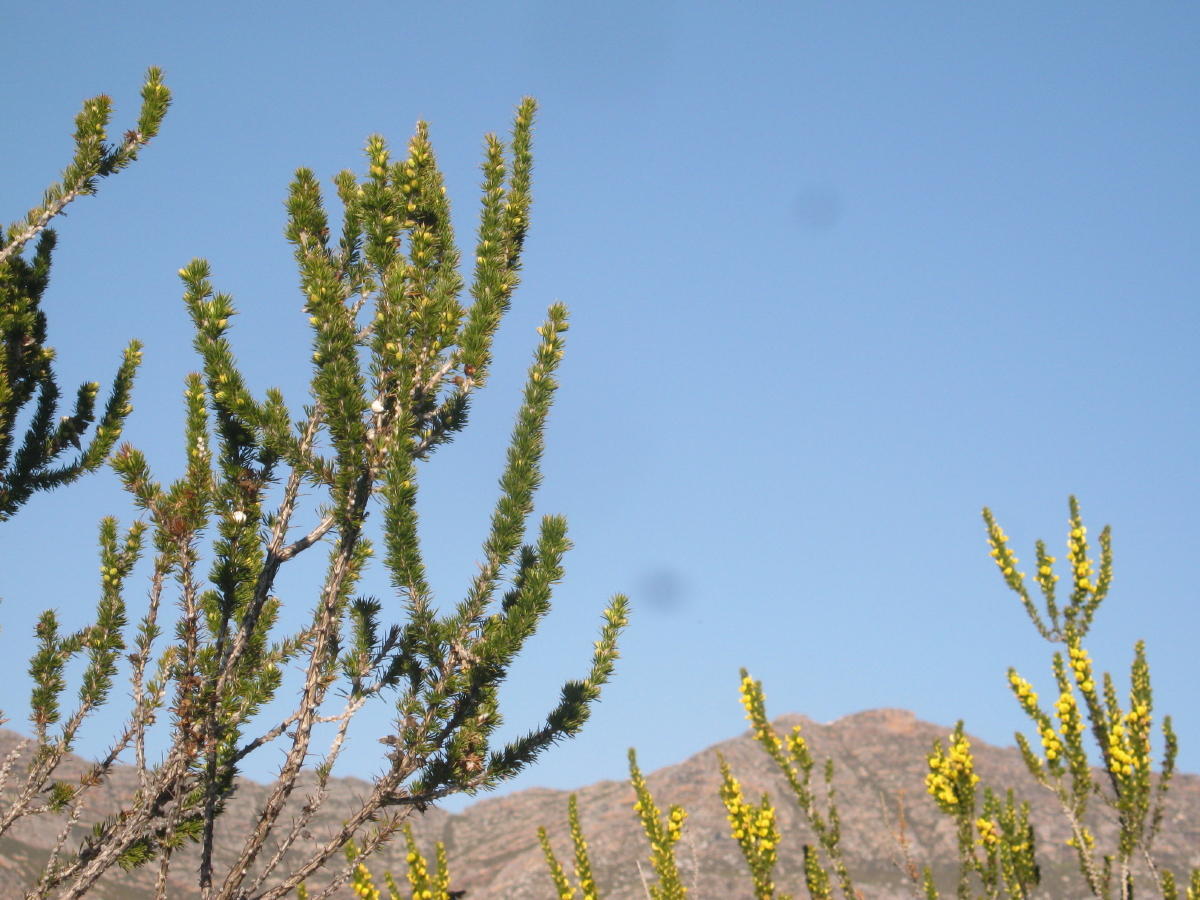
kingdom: Plantae
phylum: Tracheophyta
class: Magnoliopsida
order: Fabales
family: Fabaceae
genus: Aspalathus
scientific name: Aspalathus sceptrumaureum
